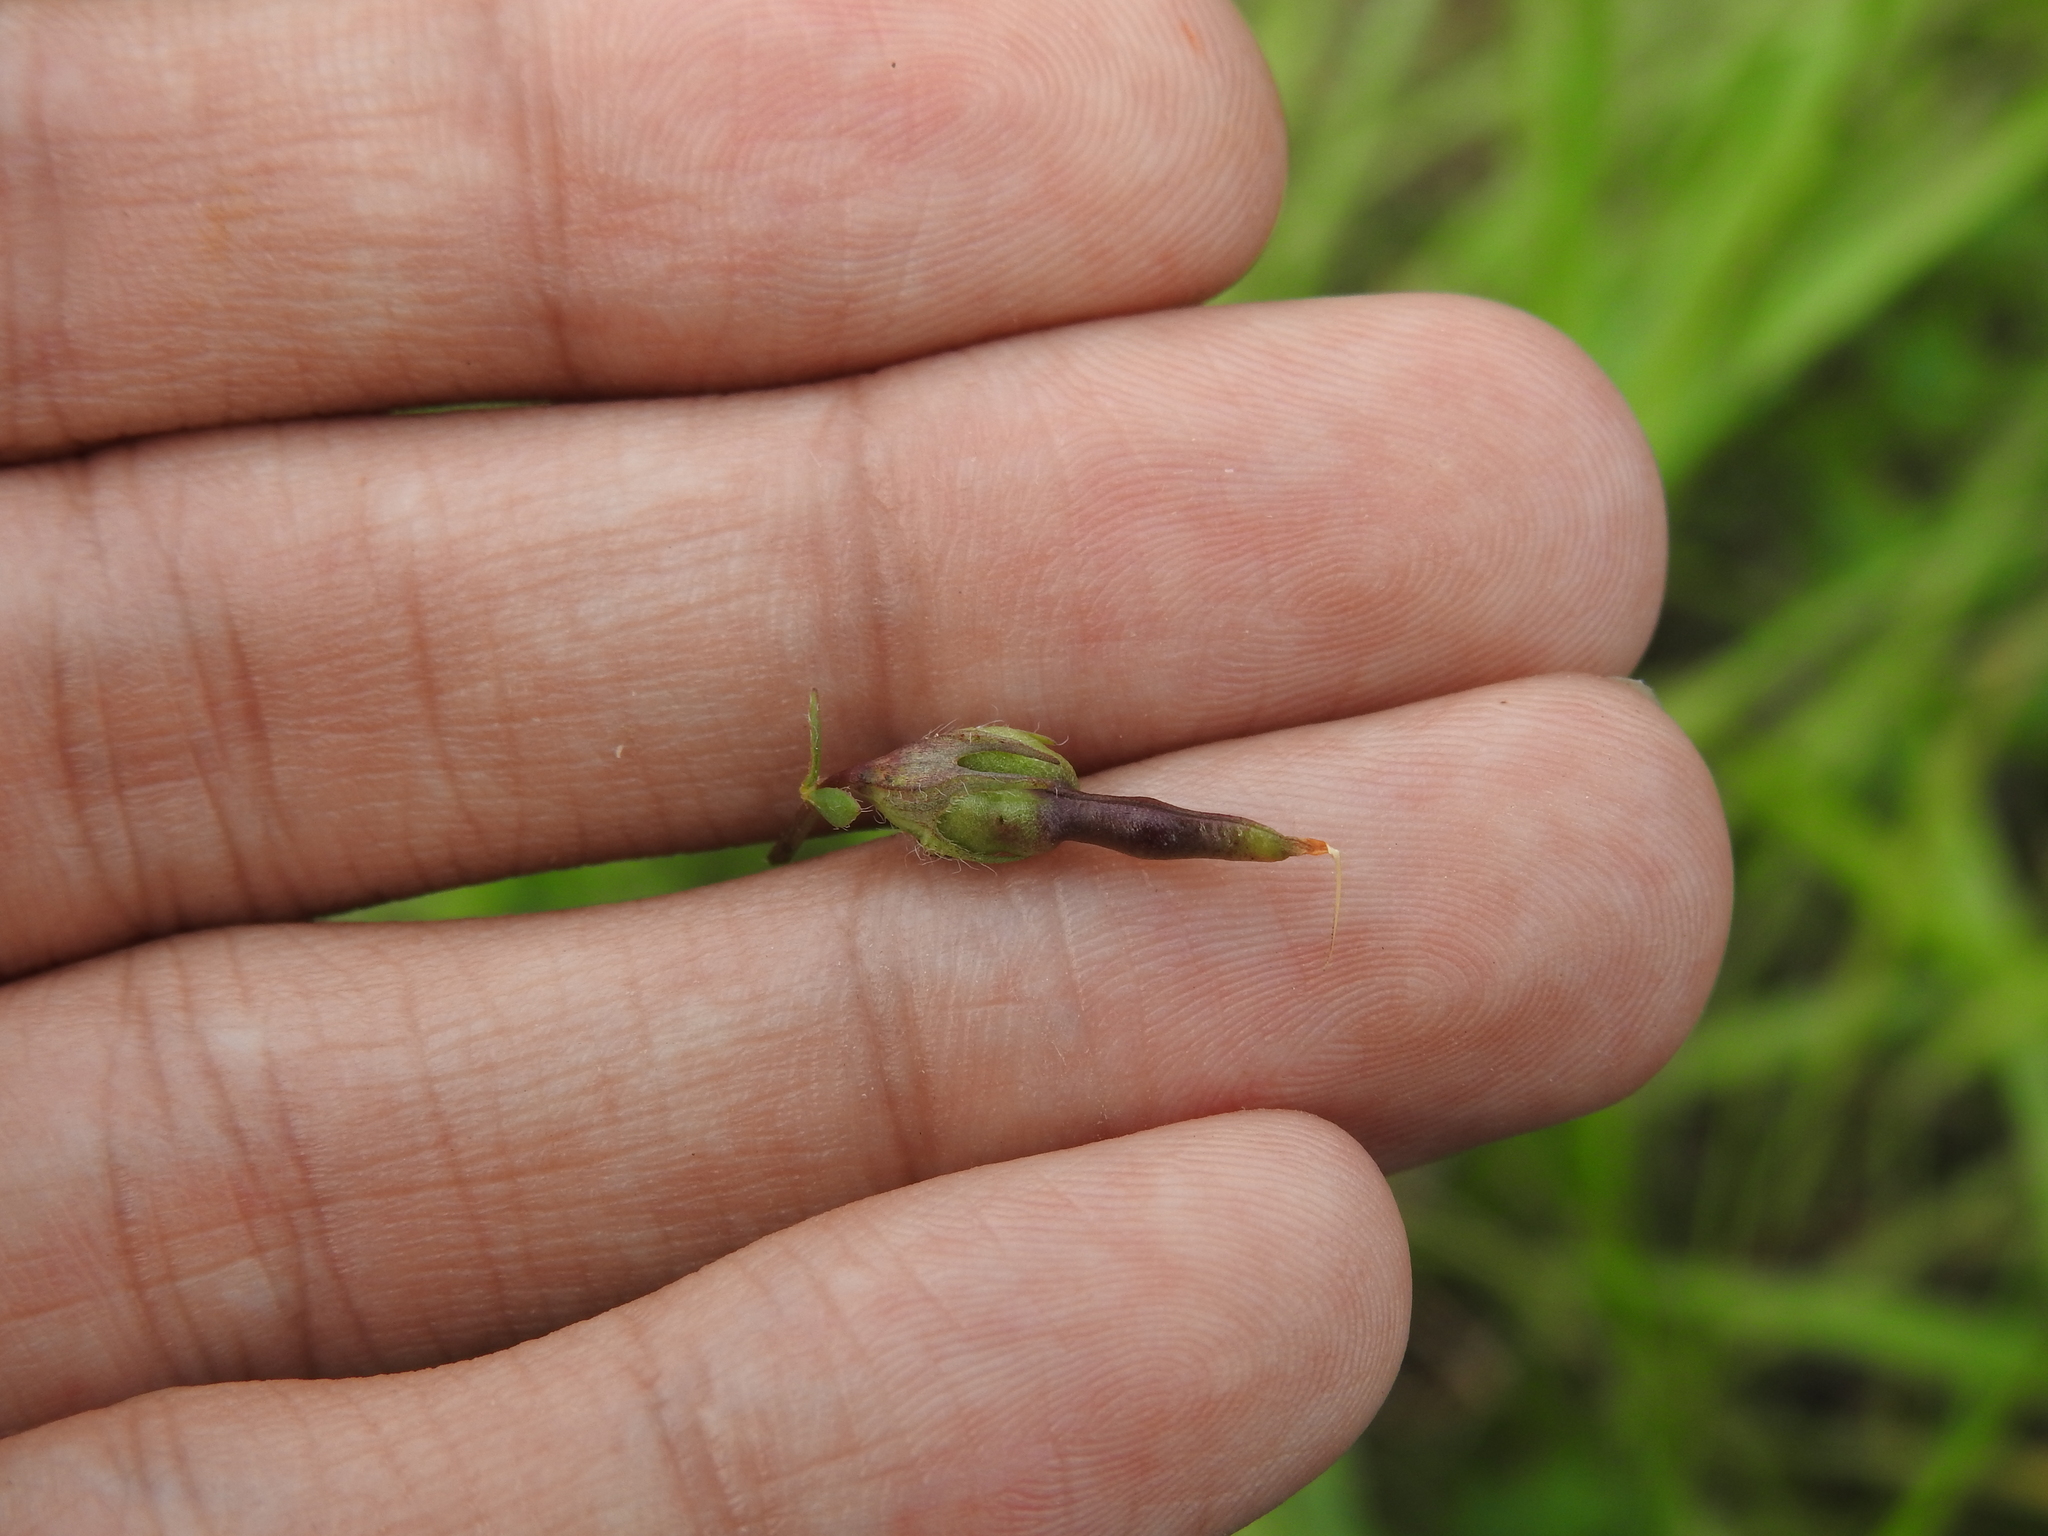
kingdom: Animalia
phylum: Arthropoda
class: Insecta
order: Diptera
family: Cecidomyiidae
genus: Asphondylia
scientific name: Asphondylia melanopus
